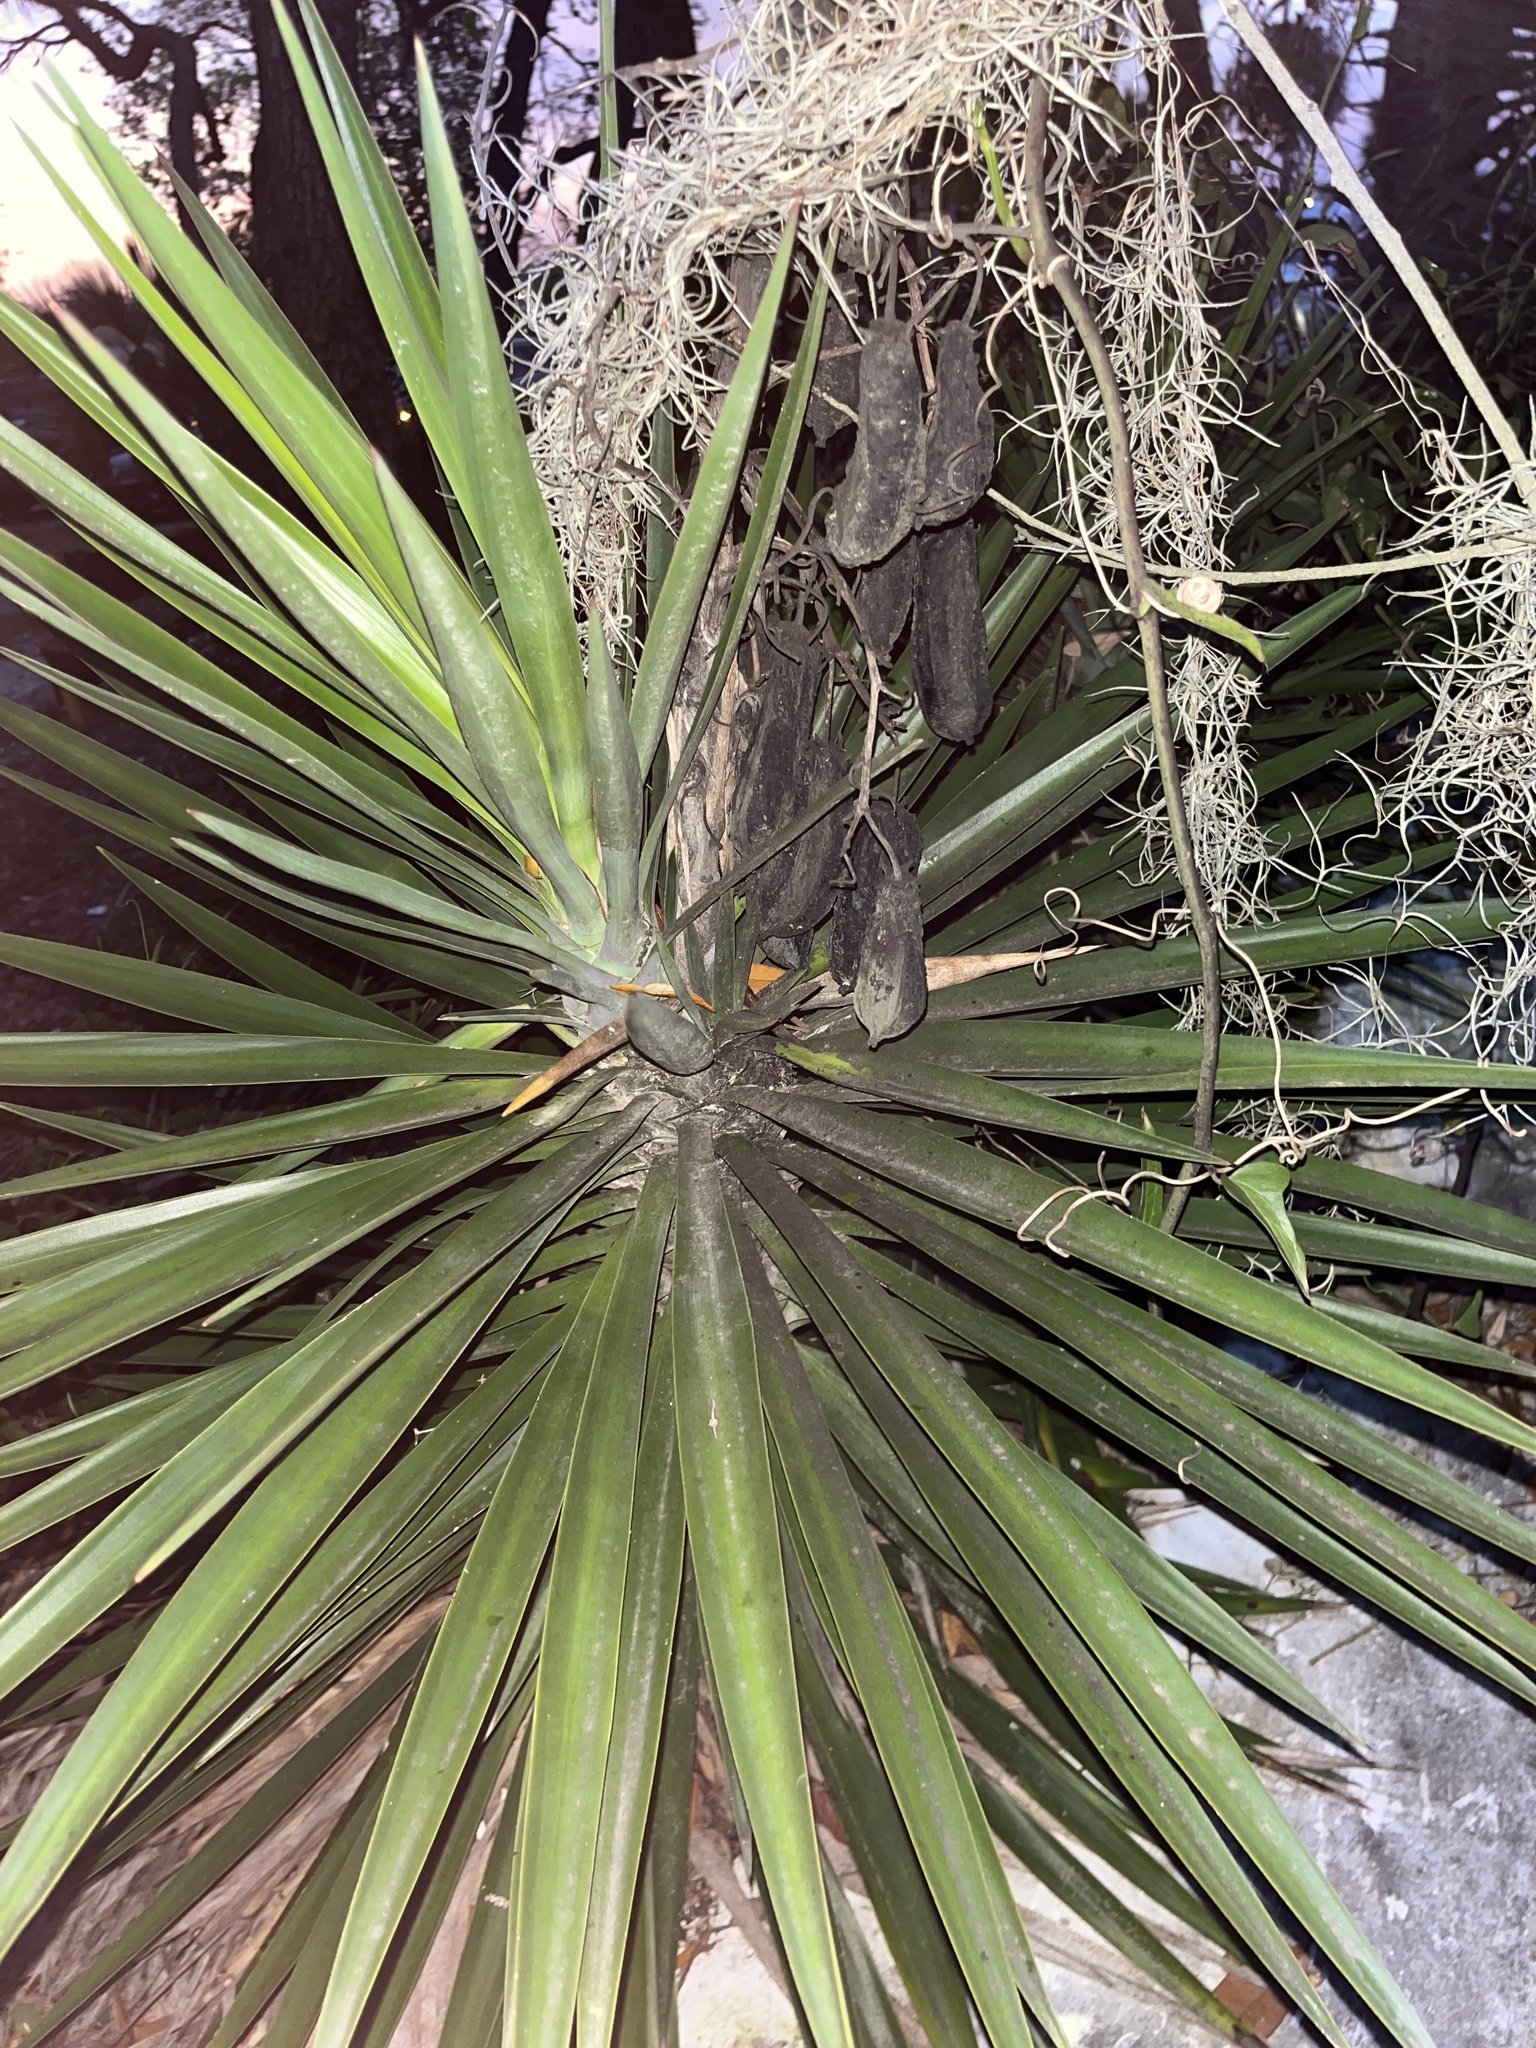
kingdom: Plantae
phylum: Tracheophyta
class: Liliopsida
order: Asparagales
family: Asparagaceae
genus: Yucca
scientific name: Yucca aloifolia
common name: Aloe yucca
